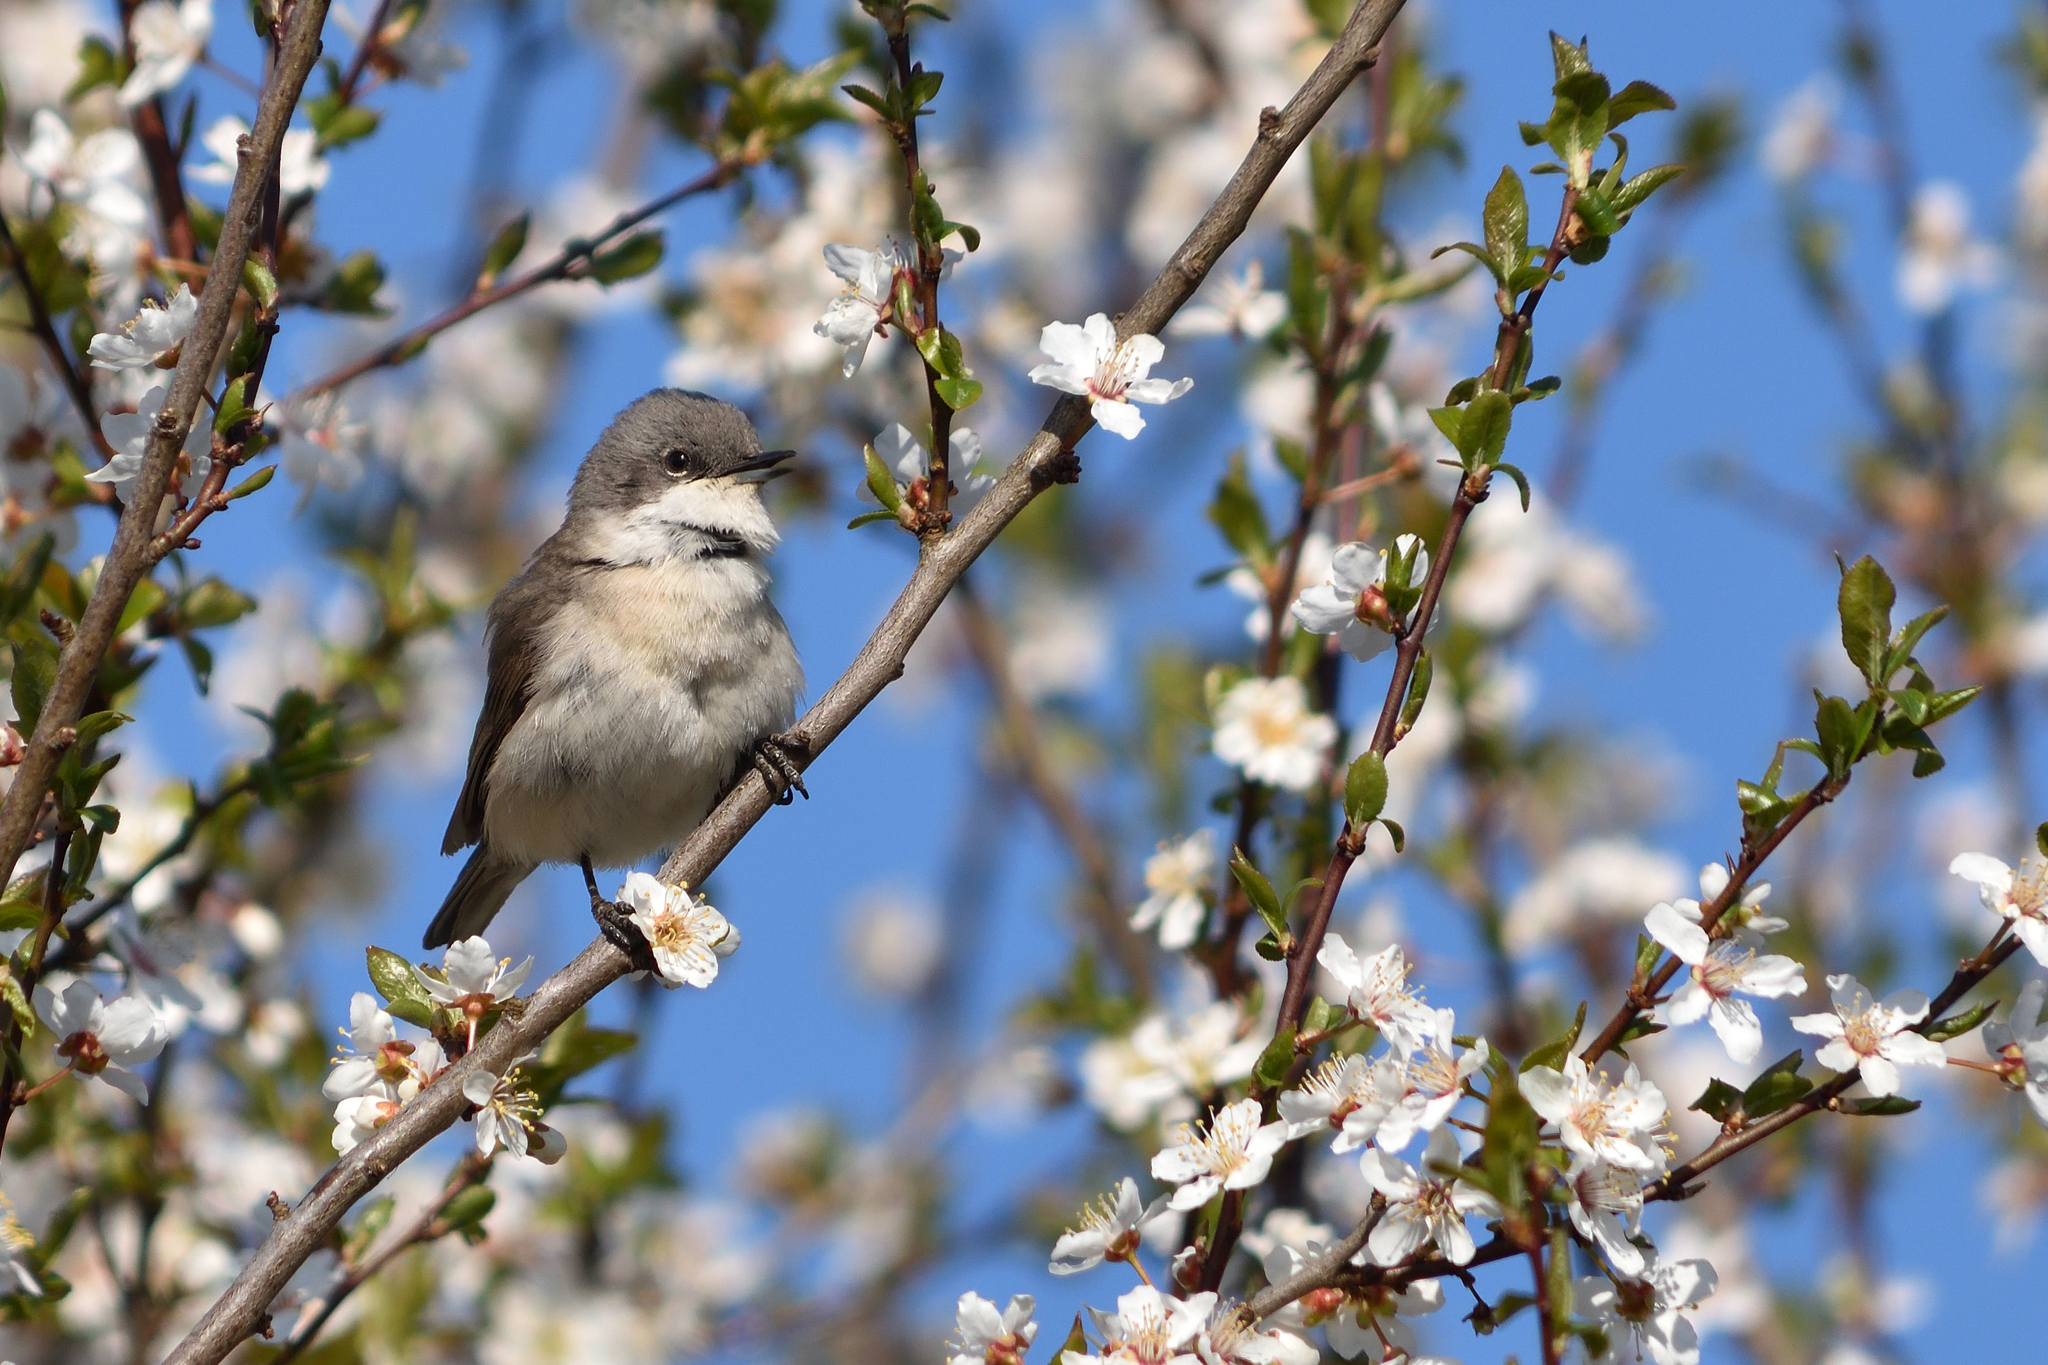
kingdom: Animalia
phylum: Chordata
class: Aves
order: Passeriformes
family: Sylviidae
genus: Sylvia
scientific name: Sylvia curruca
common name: Lesser whitethroat
